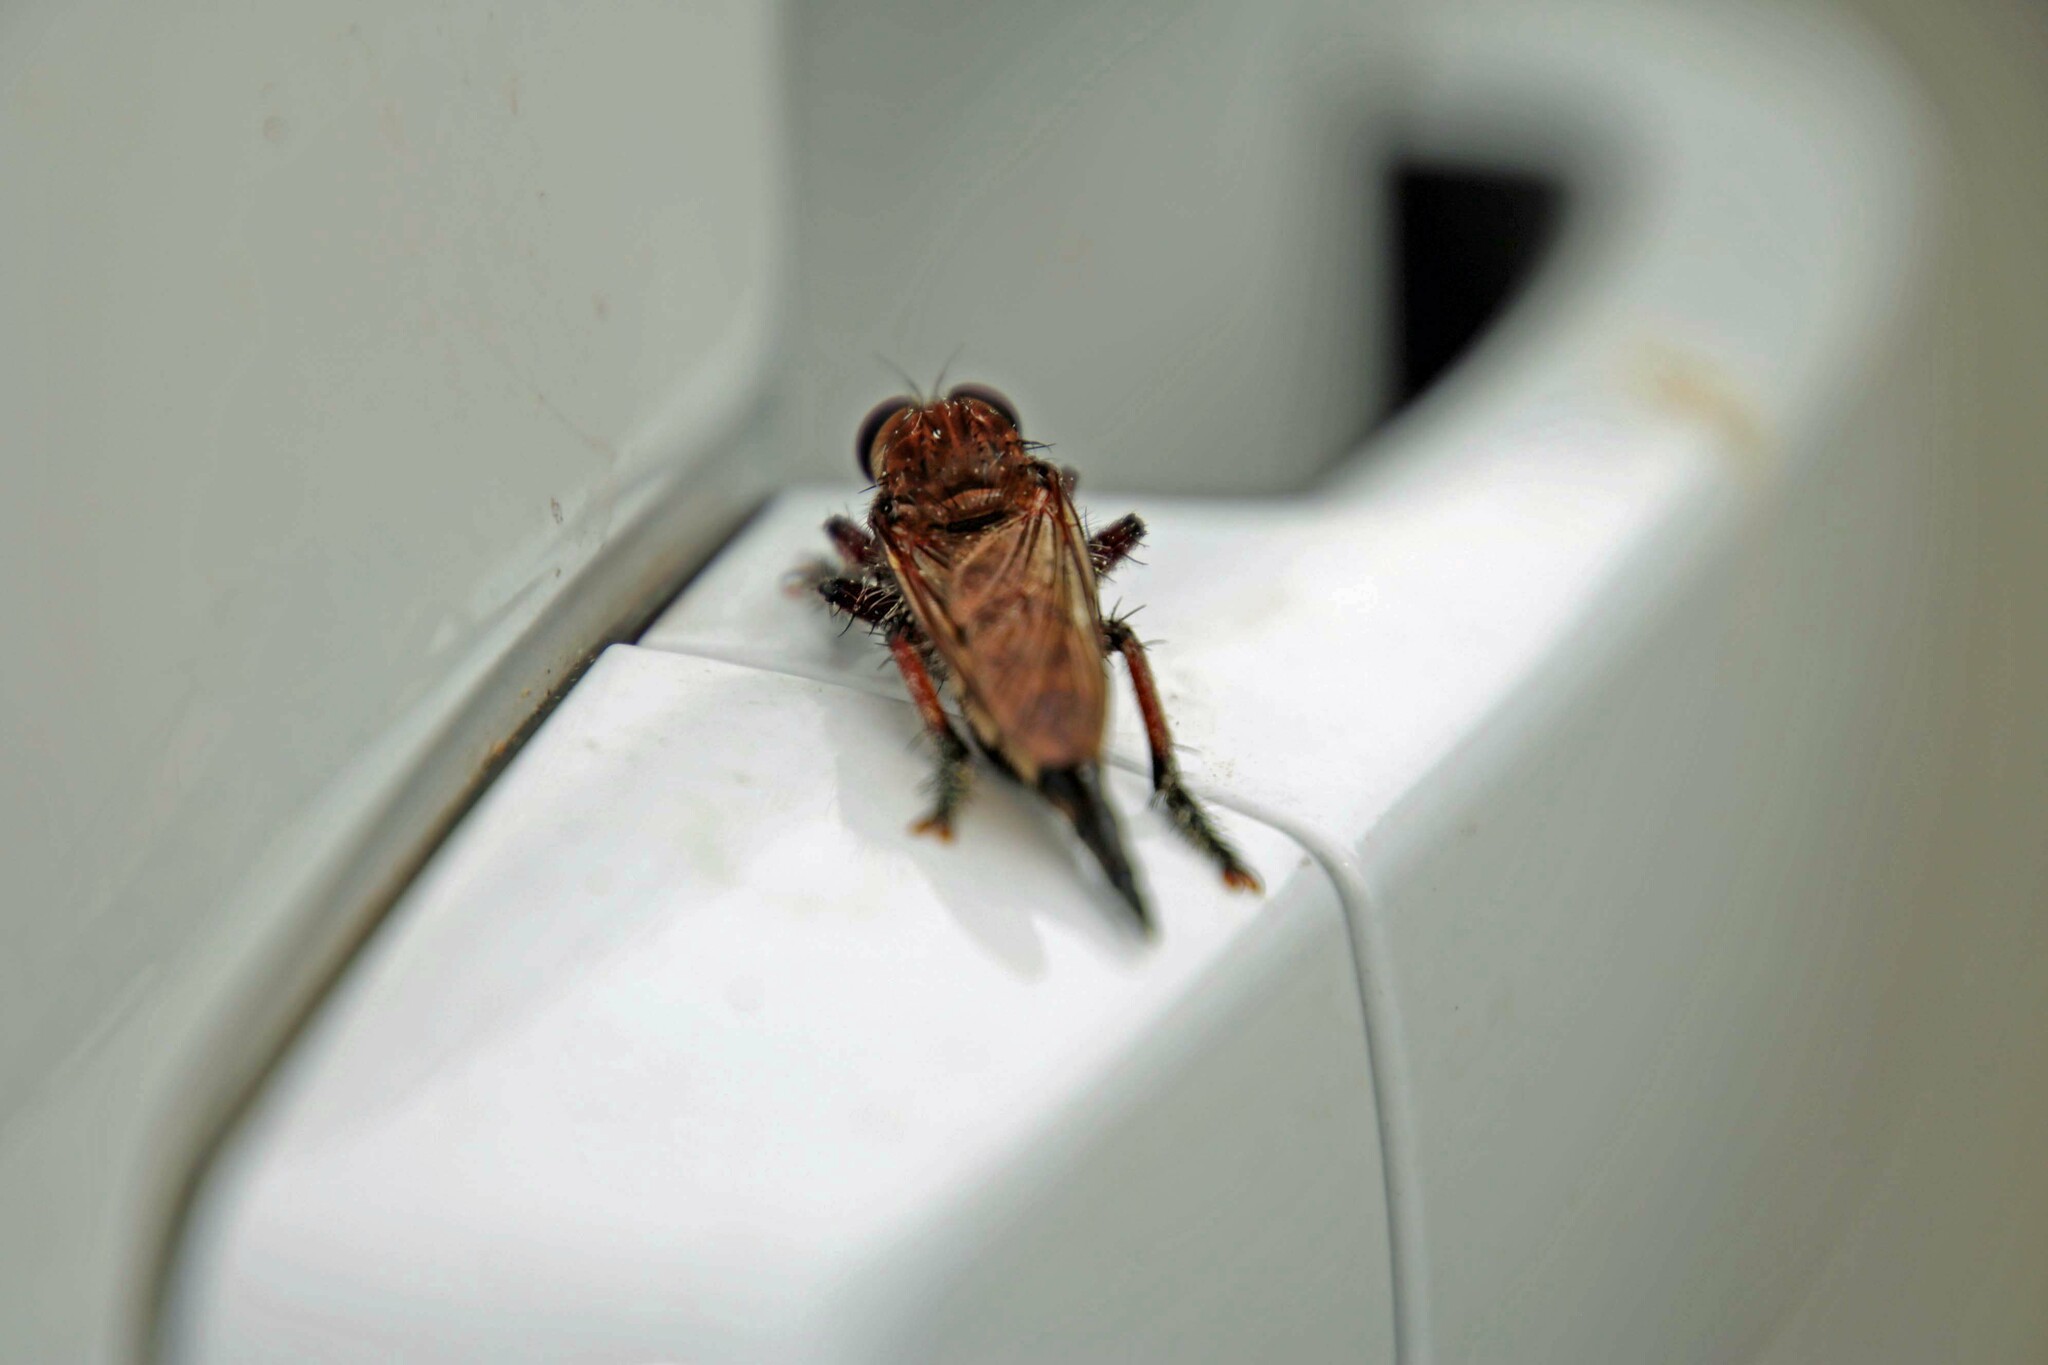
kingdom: Animalia
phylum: Arthropoda
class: Insecta
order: Diptera
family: Asilidae
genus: Promachus
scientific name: Promachus hinei
